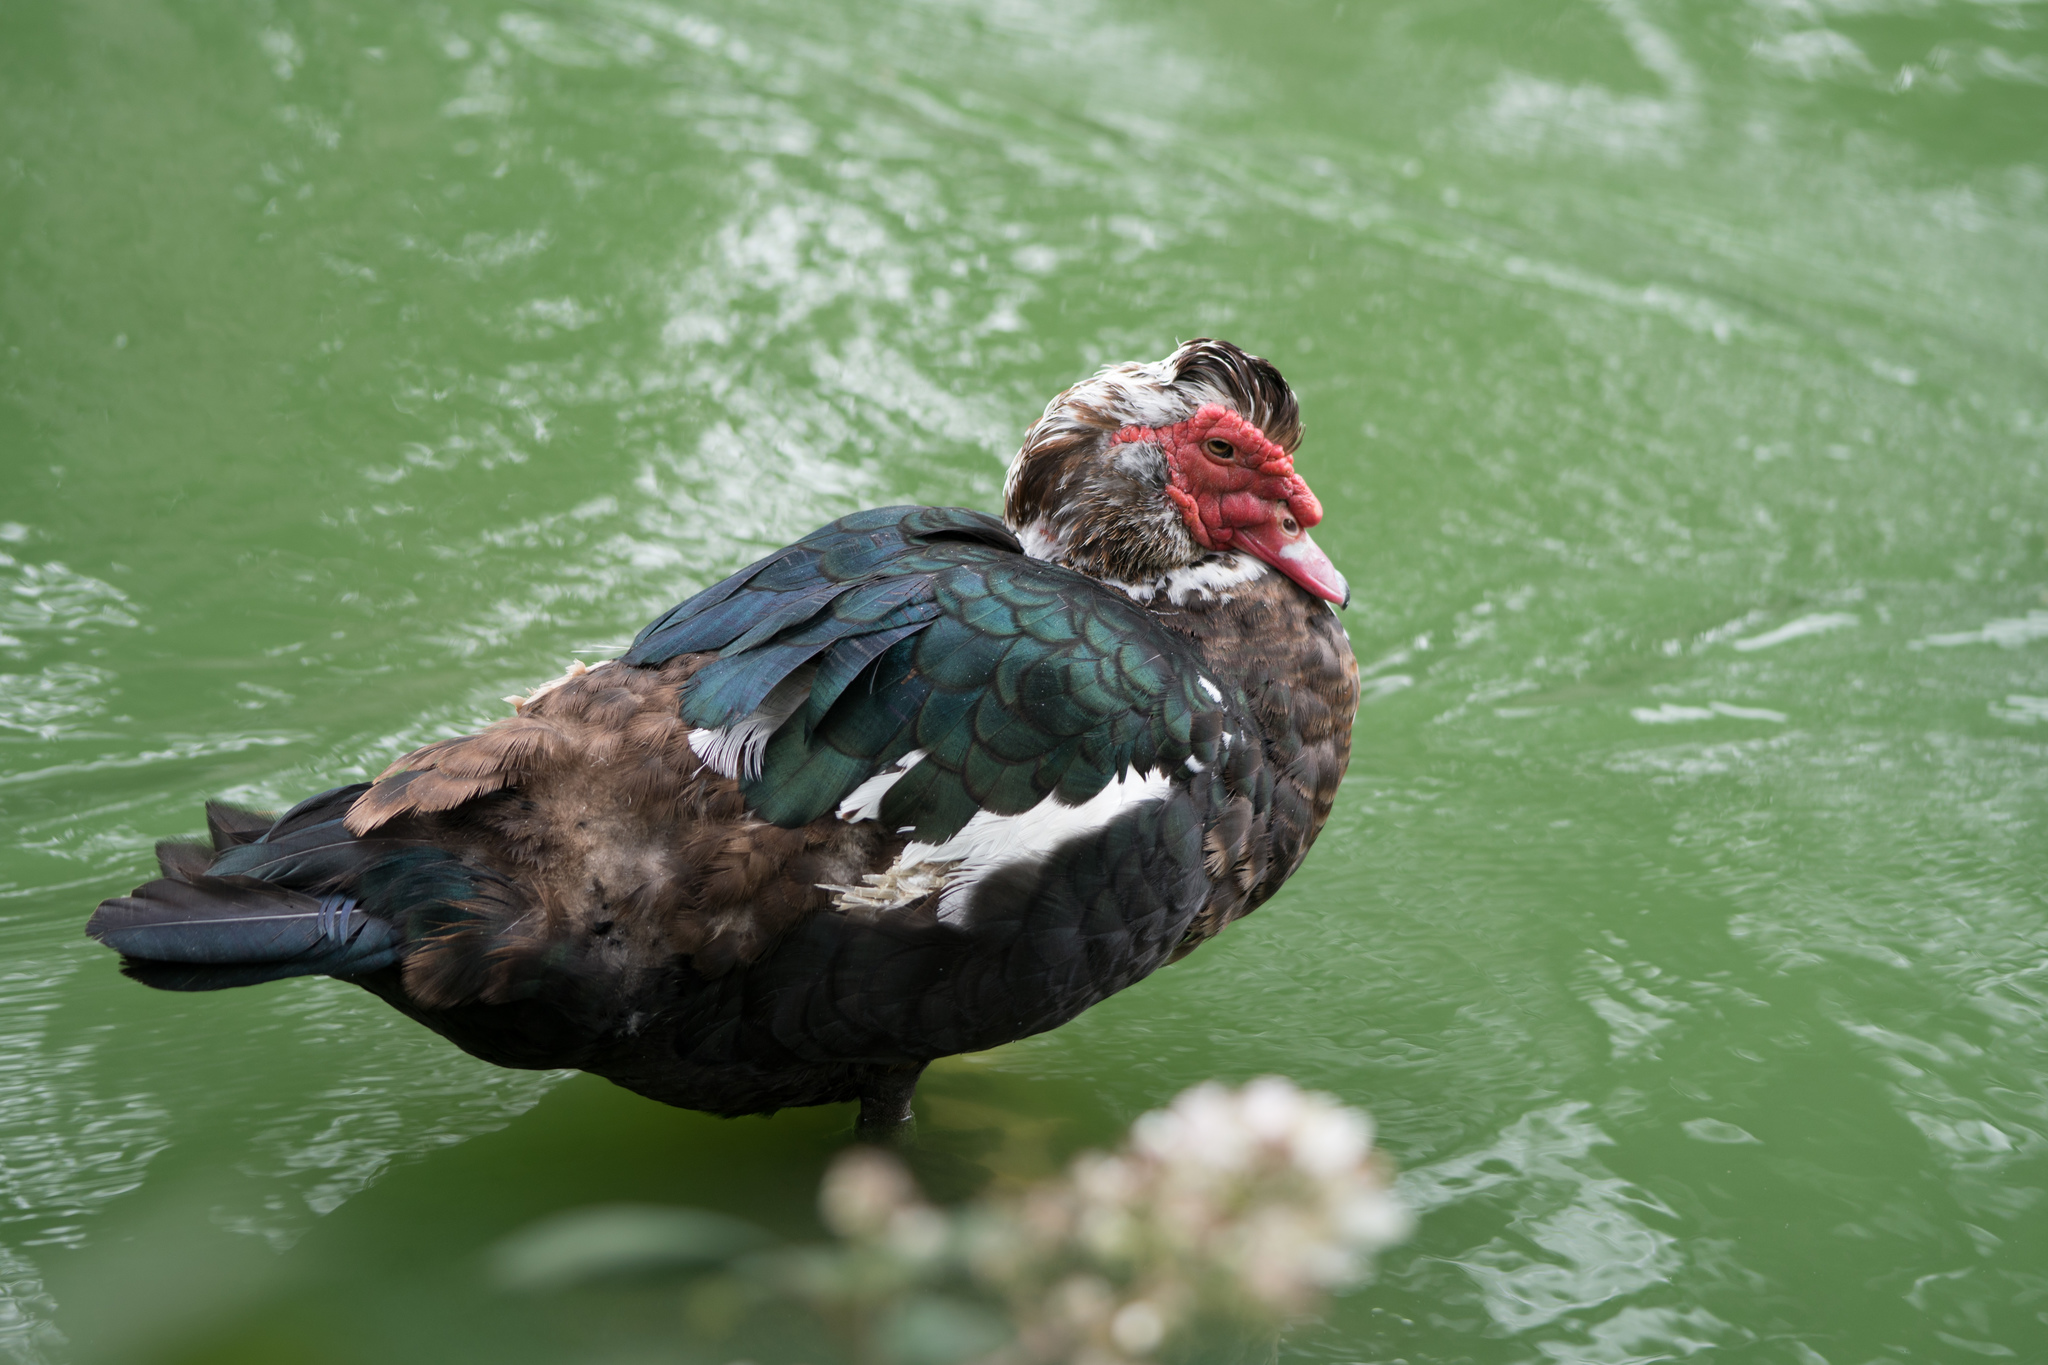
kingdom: Animalia
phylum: Chordata
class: Aves
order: Anseriformes
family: Anatidae
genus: Cairina
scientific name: Cairina moschata
